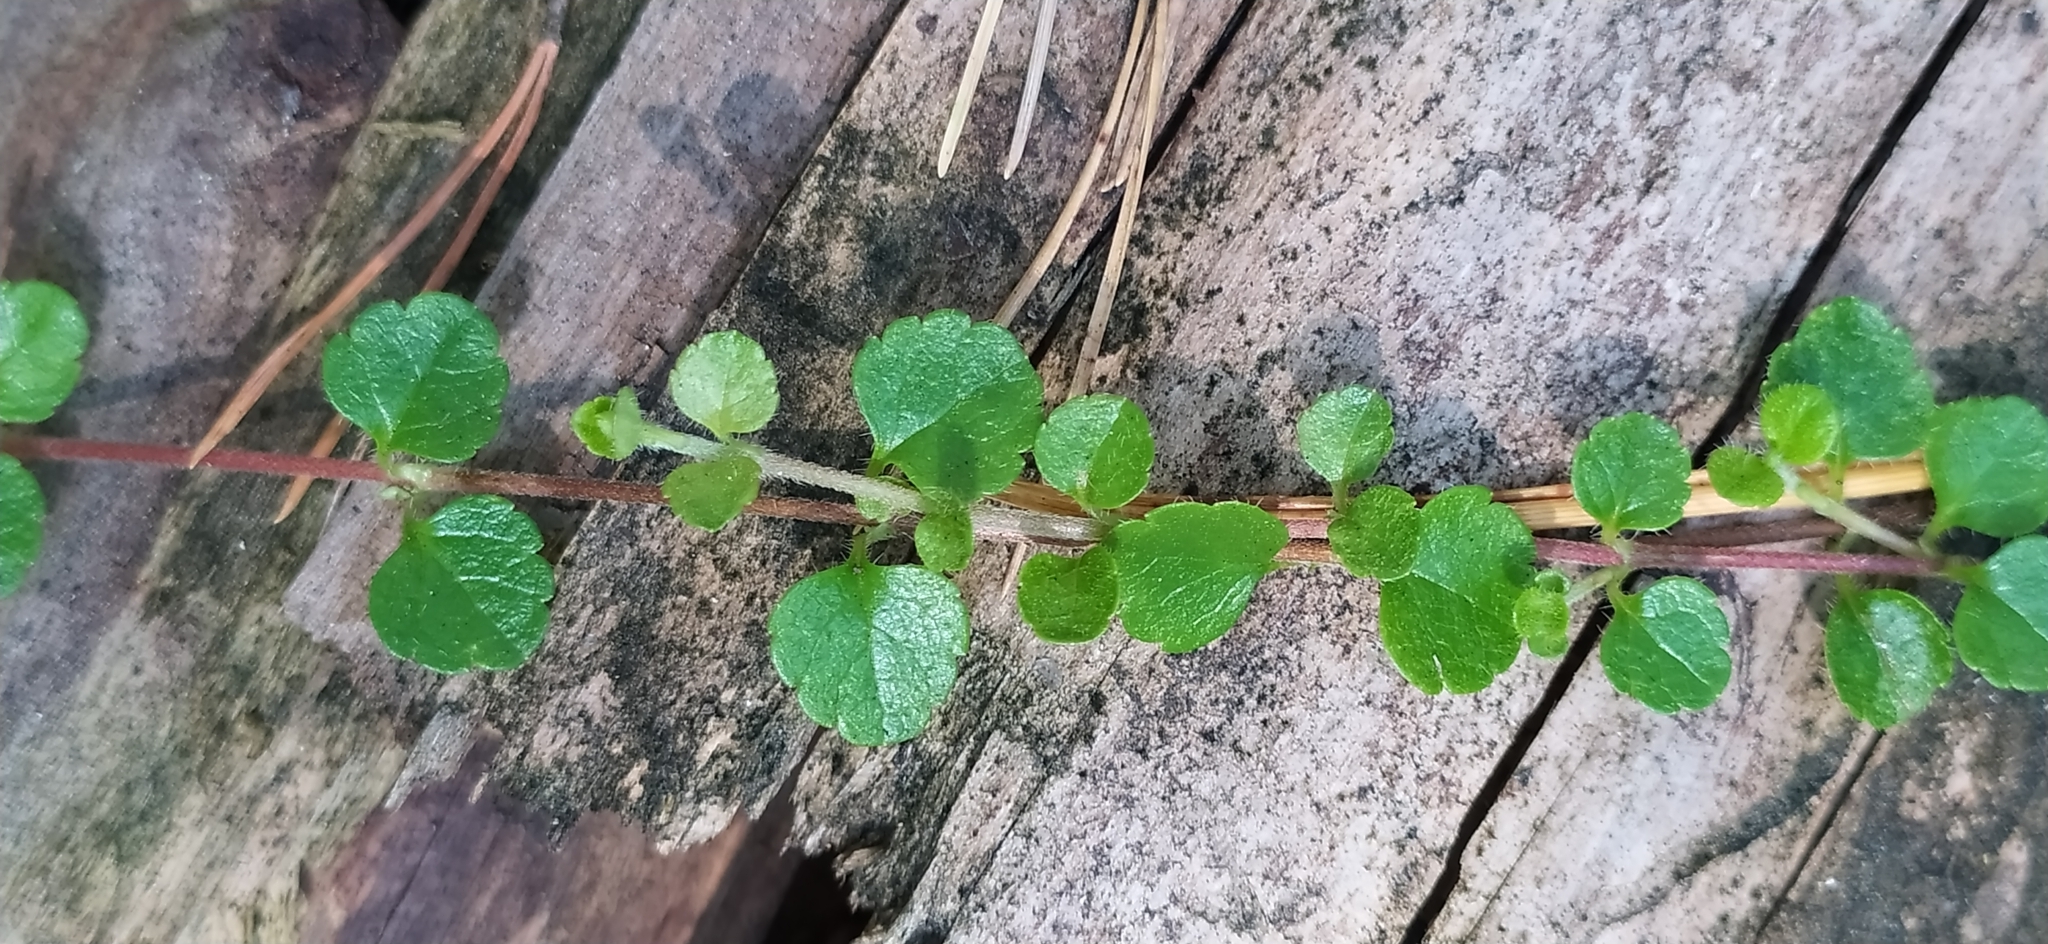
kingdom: Plantae
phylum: Tracheophyta
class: Magnoliopsida
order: Dipsacales
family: Caprifoliaceae
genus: Linnaea
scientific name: Linnaea borealis
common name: Twinflower
